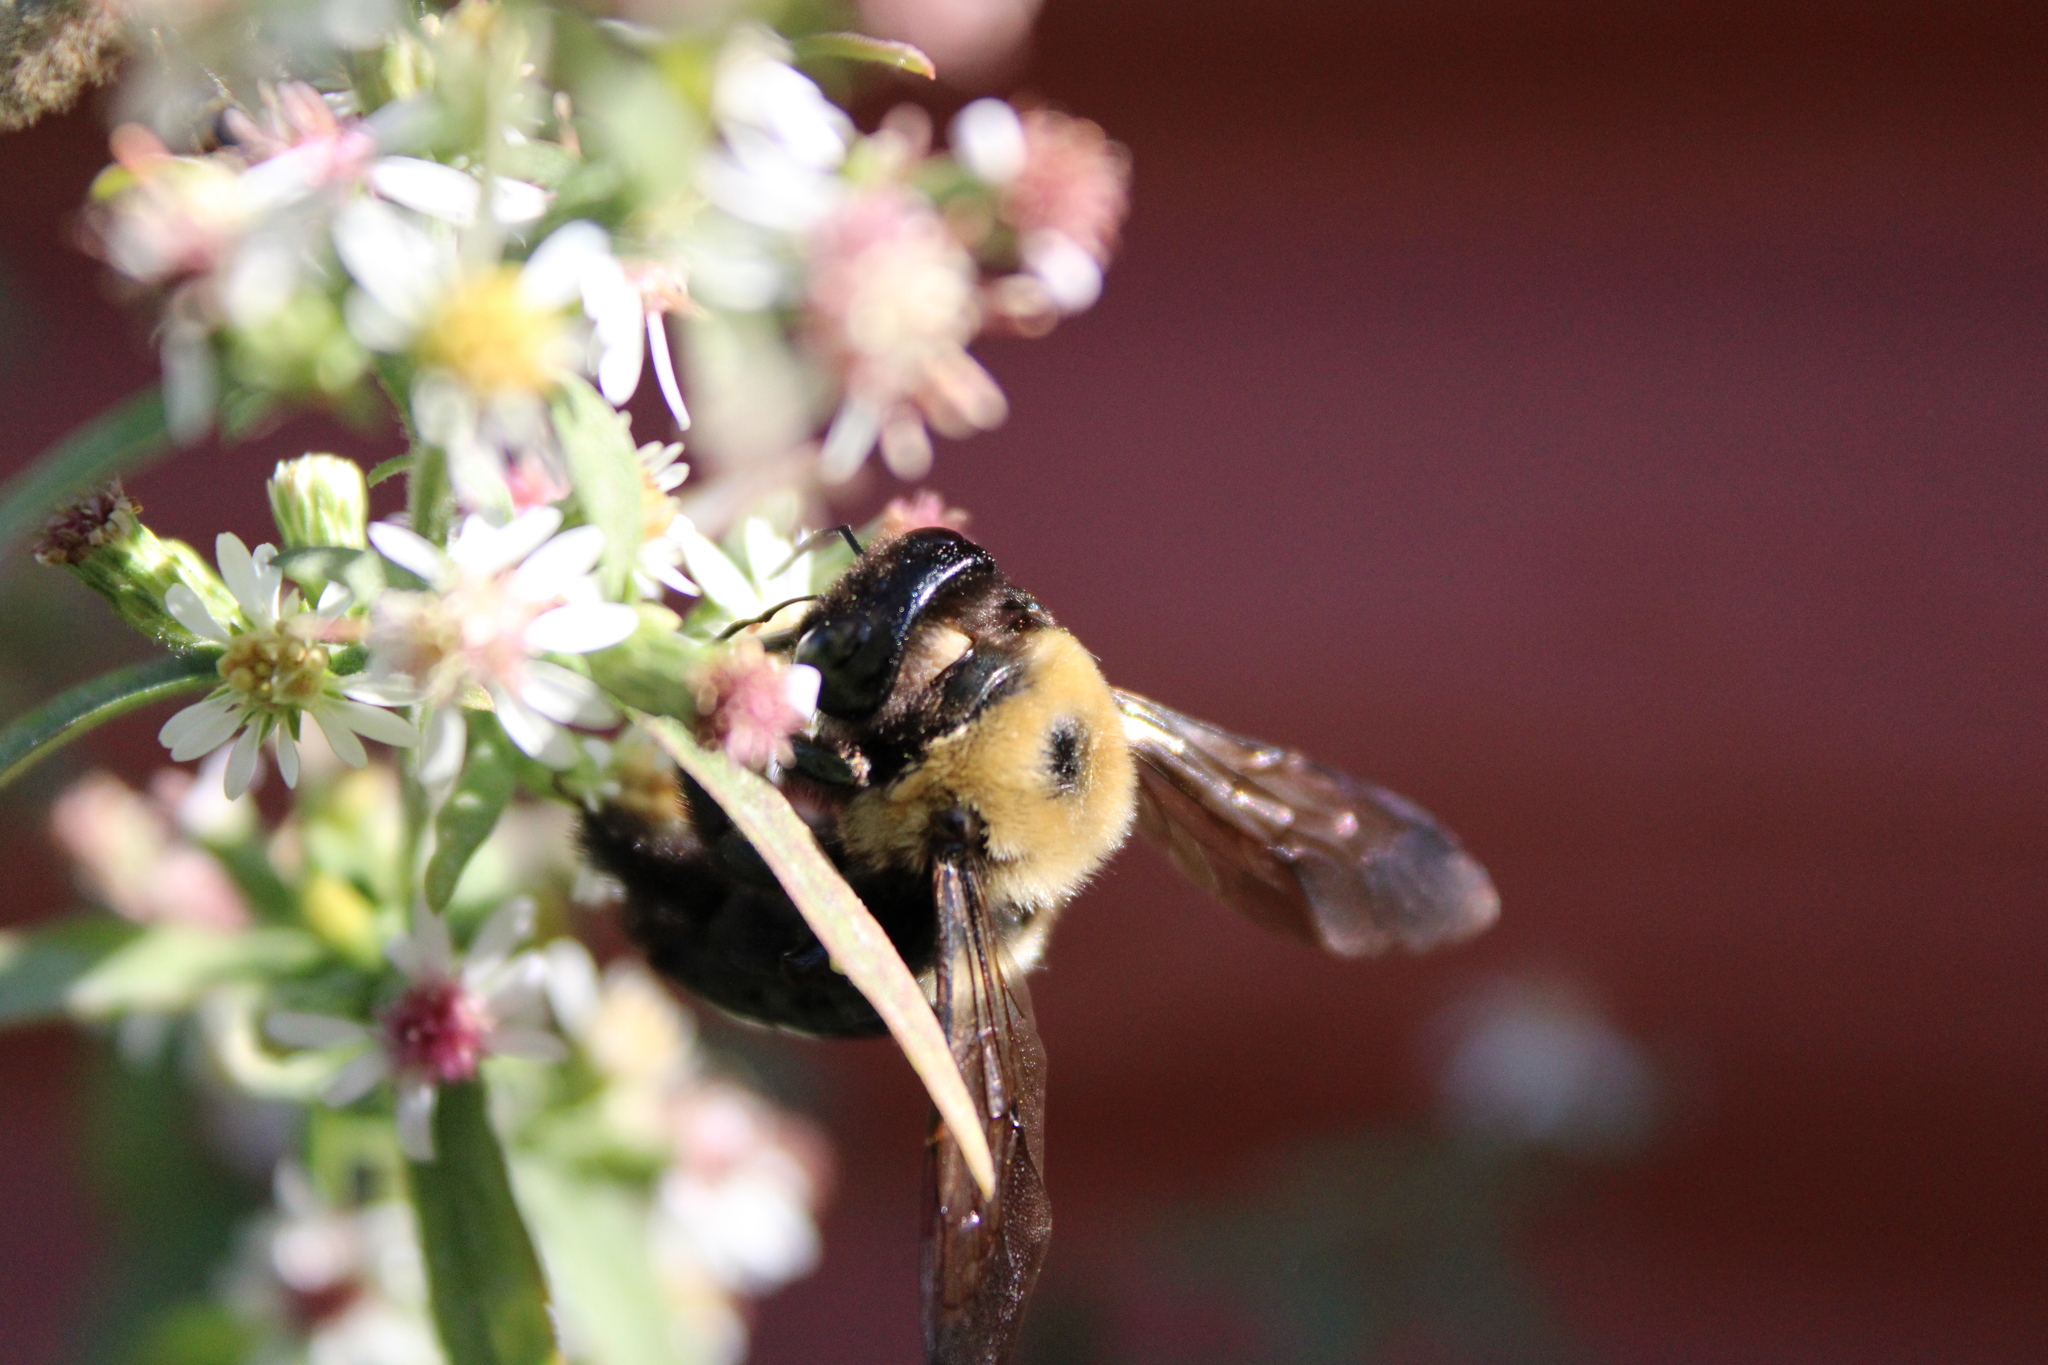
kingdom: Animalia
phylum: Arthropoda
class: Insecta
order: Hymenoptera
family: Apidae
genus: Xylocopa
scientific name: Xylocopa virginica
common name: Carpenter bee
